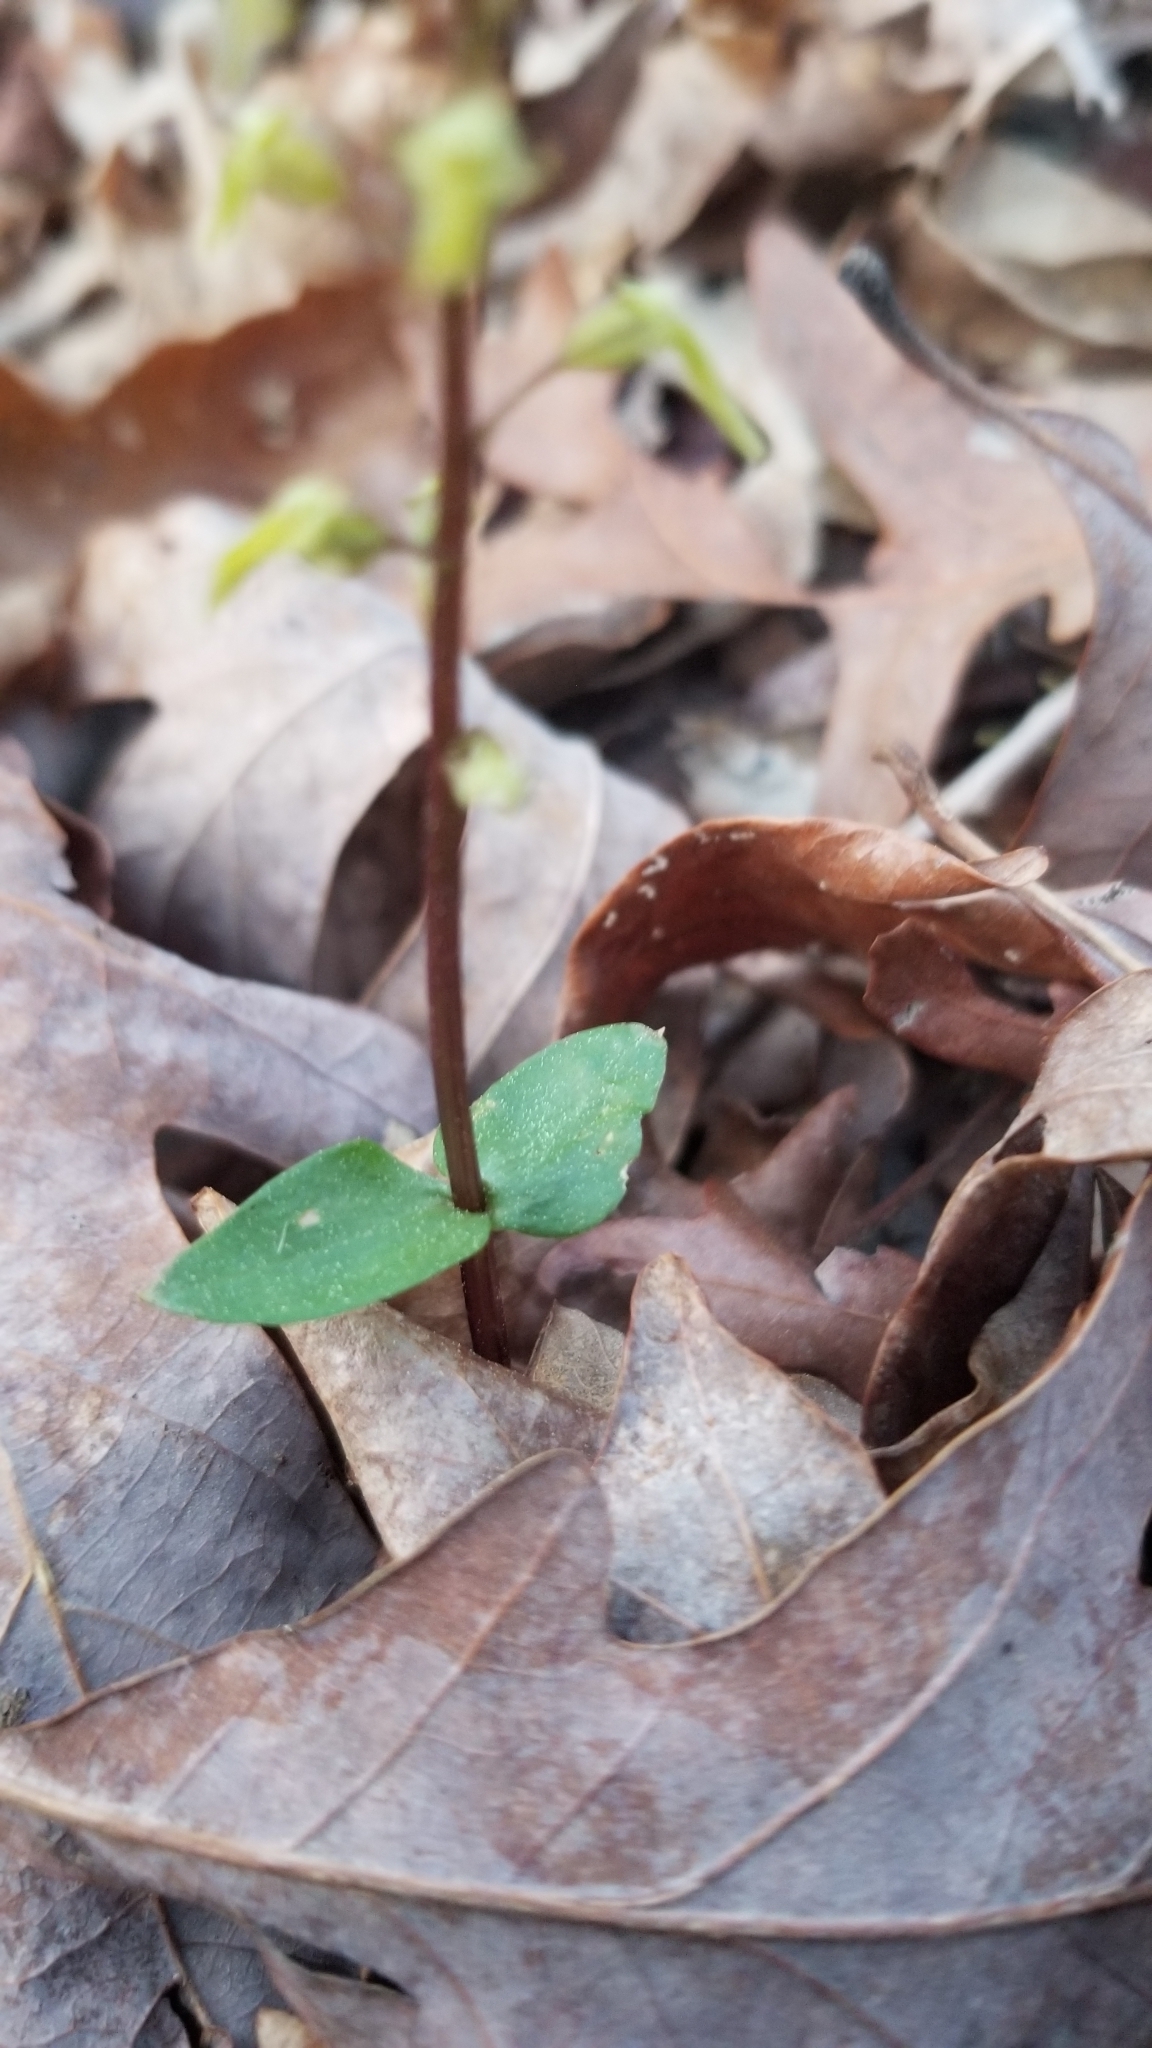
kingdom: Plantae
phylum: Tracheophyta
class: Liliopsida
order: Asparagales
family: Orchidaceae
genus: Neottia
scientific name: Neottia bifolia
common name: Southern twayblade
